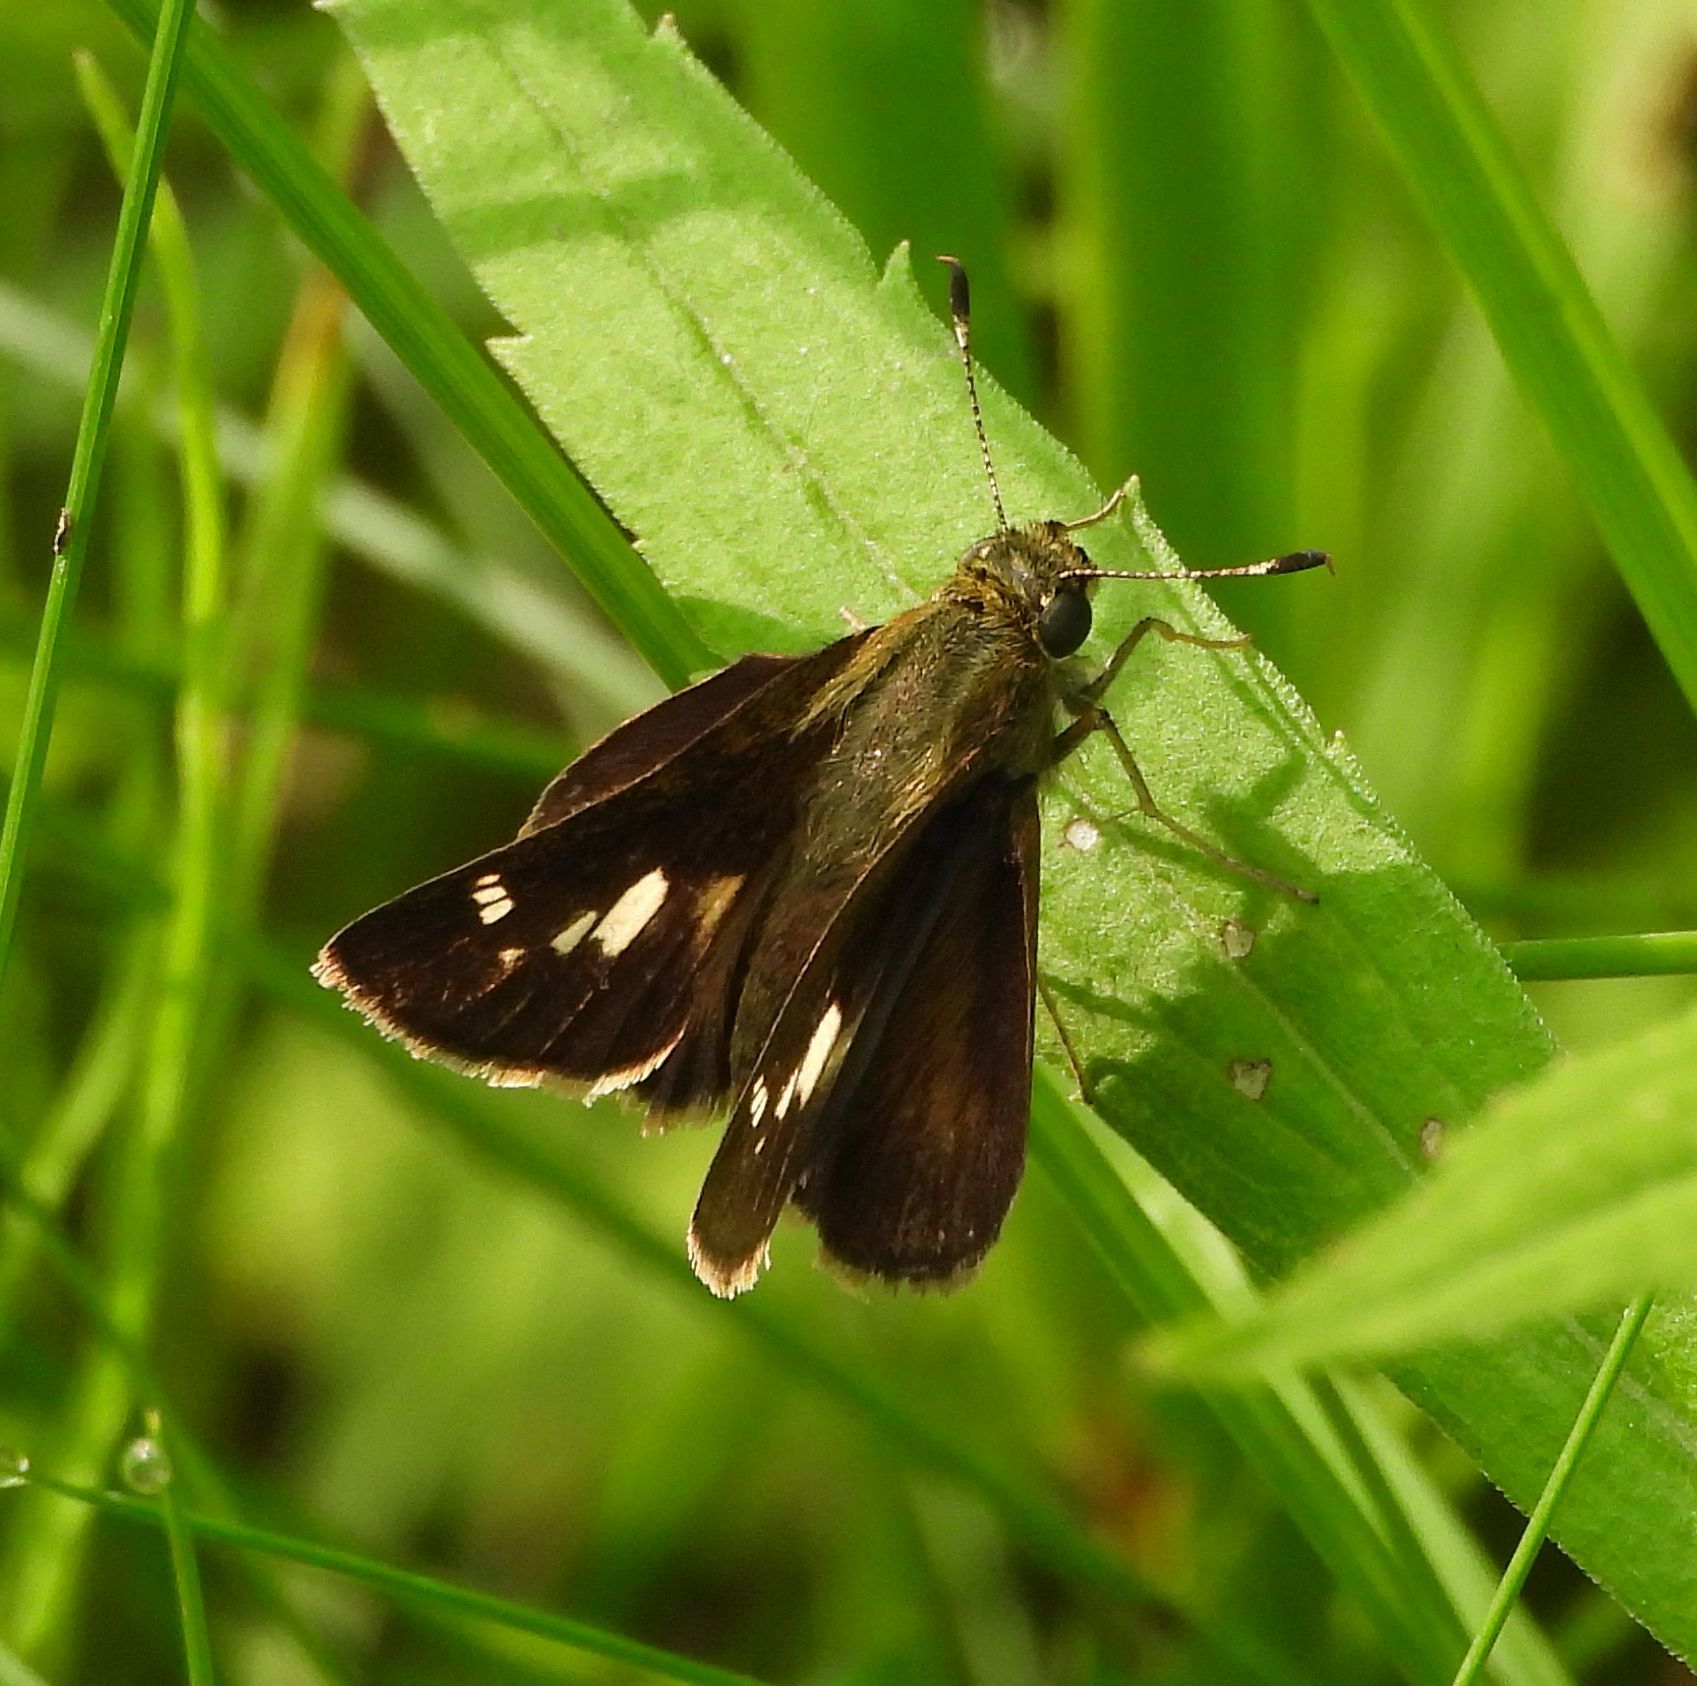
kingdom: Animalia
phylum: Arthropoda
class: Insecta
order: Lepidoptera
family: Hesperiidae
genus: Vernia
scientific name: Vernia verna
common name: Little glassywing
